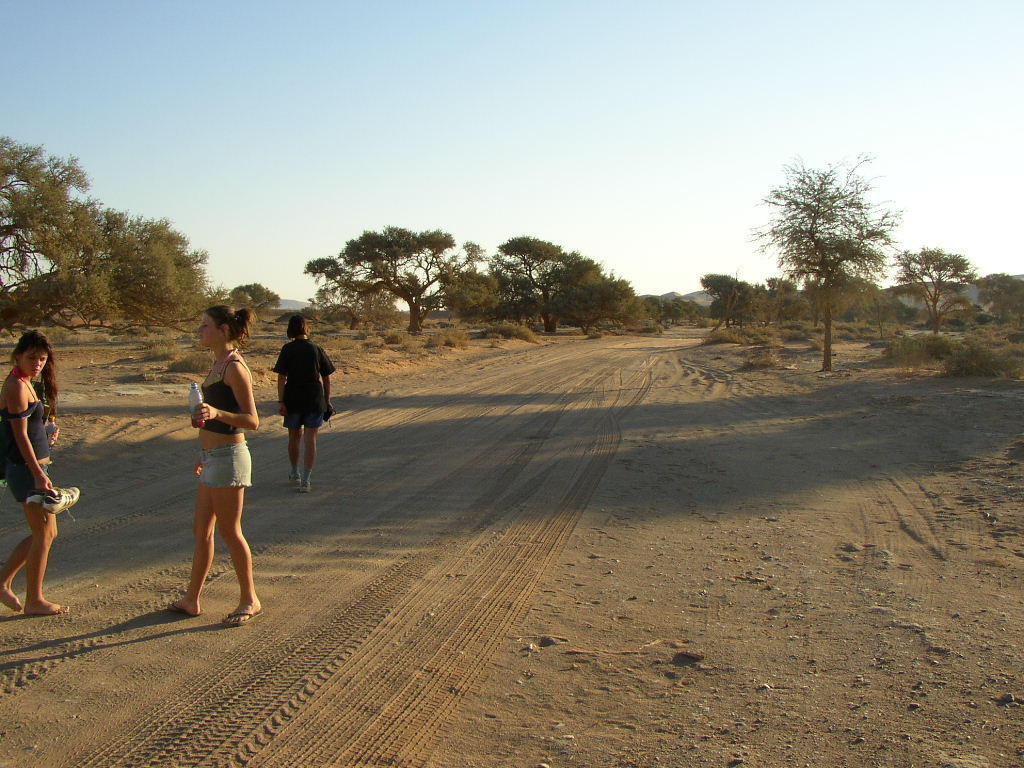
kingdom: Plantae
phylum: Tracheophyta
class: Magnoliopsida
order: Fabales
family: Fabaceae
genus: Vachellia
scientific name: Vachellia erioloba
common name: Camel thorn
